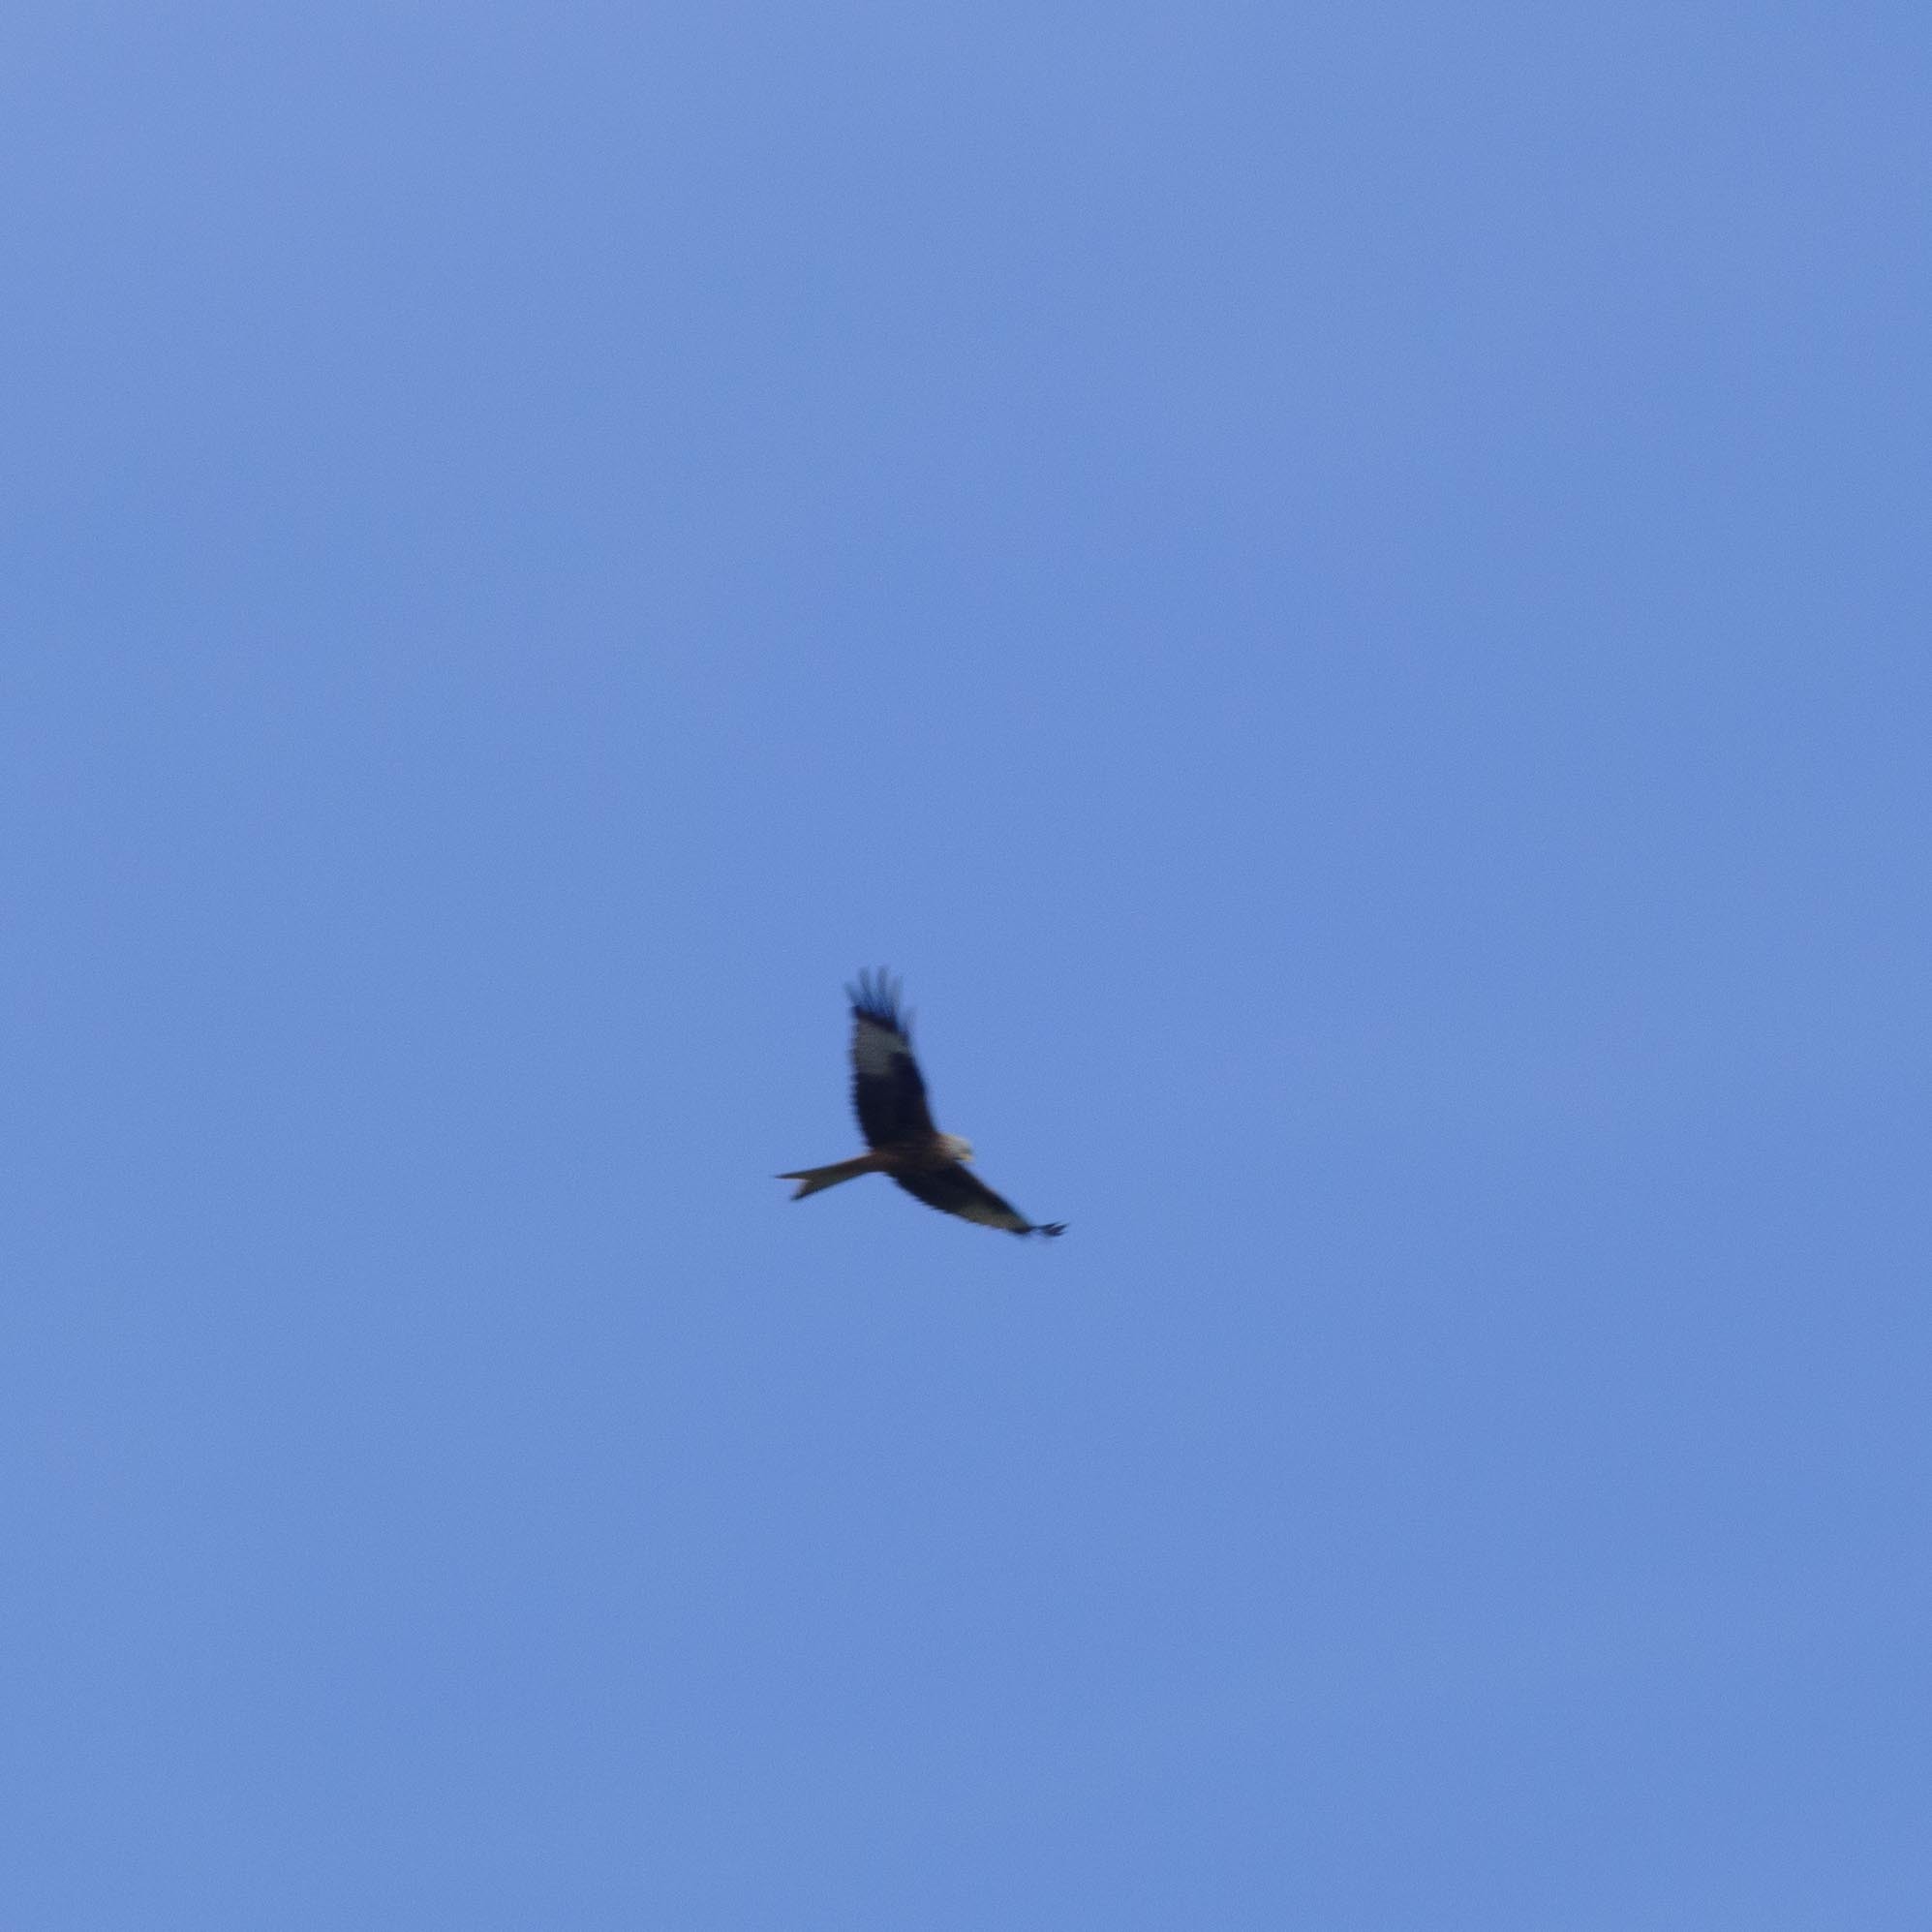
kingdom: Animalia
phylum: Chordata
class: Aves
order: Accipitriformes
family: Accipitridae
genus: Milvus
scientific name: Milvus milvus
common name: Red kite
